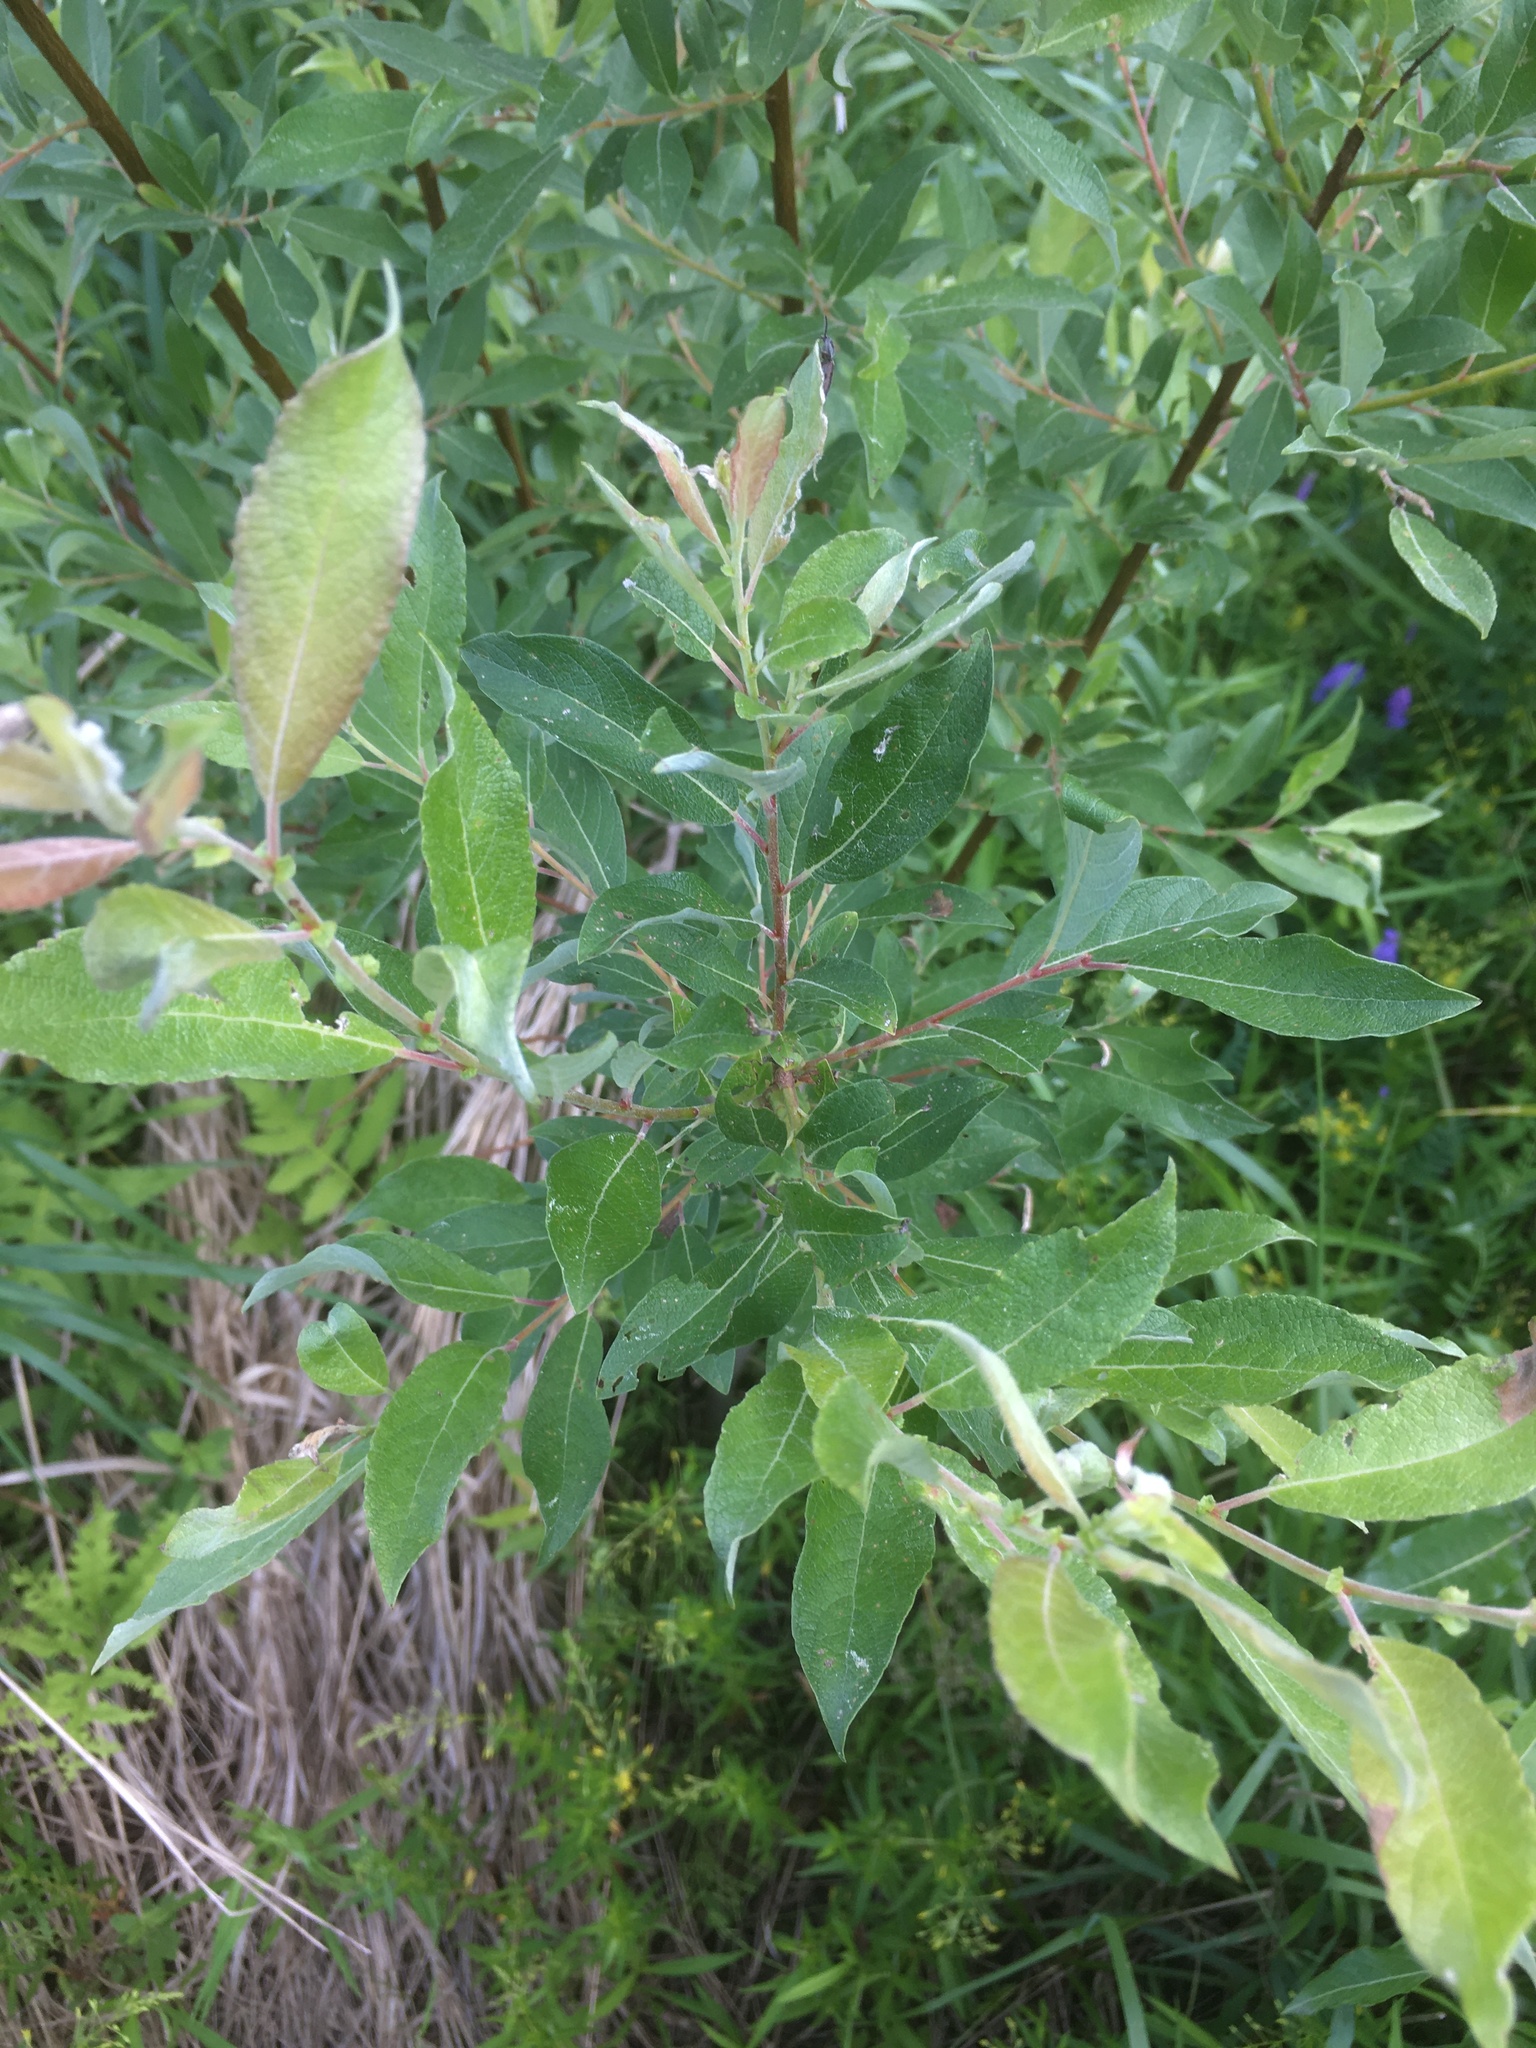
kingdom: Plantae
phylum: Tracheophyta
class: Magnoliopsida
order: Malpighiales
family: Salicaceae
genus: Salix
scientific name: Salix bebbiana
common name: Bebb's willow
